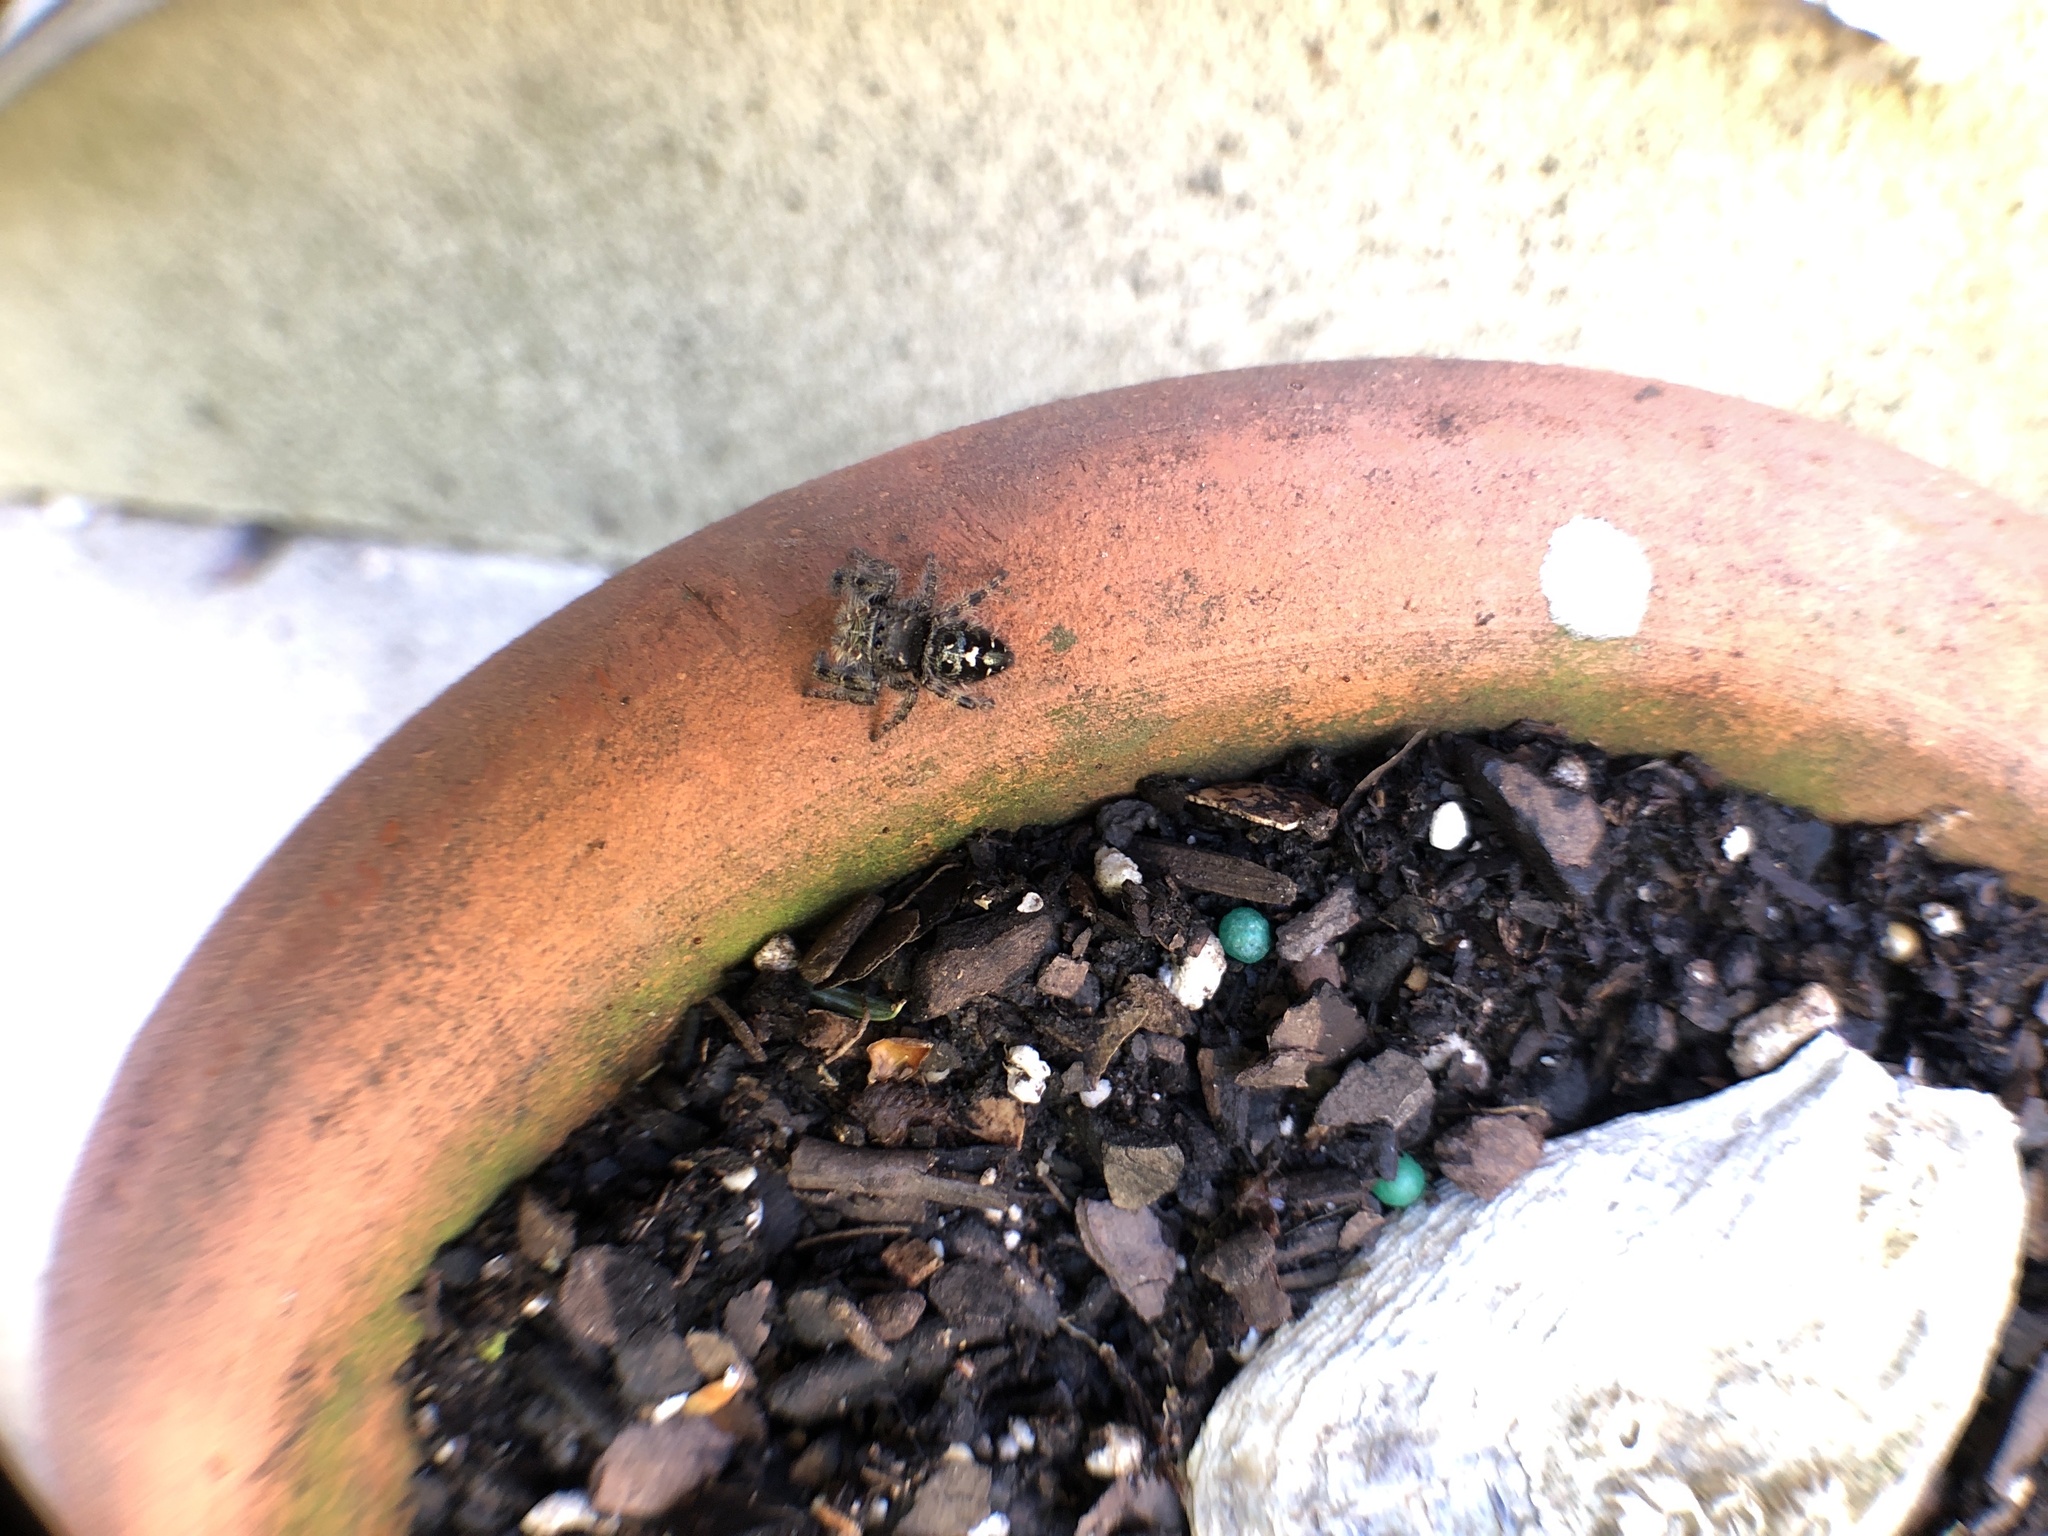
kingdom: Animalia
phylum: Arthropoda
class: Arachnida
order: Araneae
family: Salticidae
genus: Phidippus
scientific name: Phidippus audax
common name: Bold jumper
